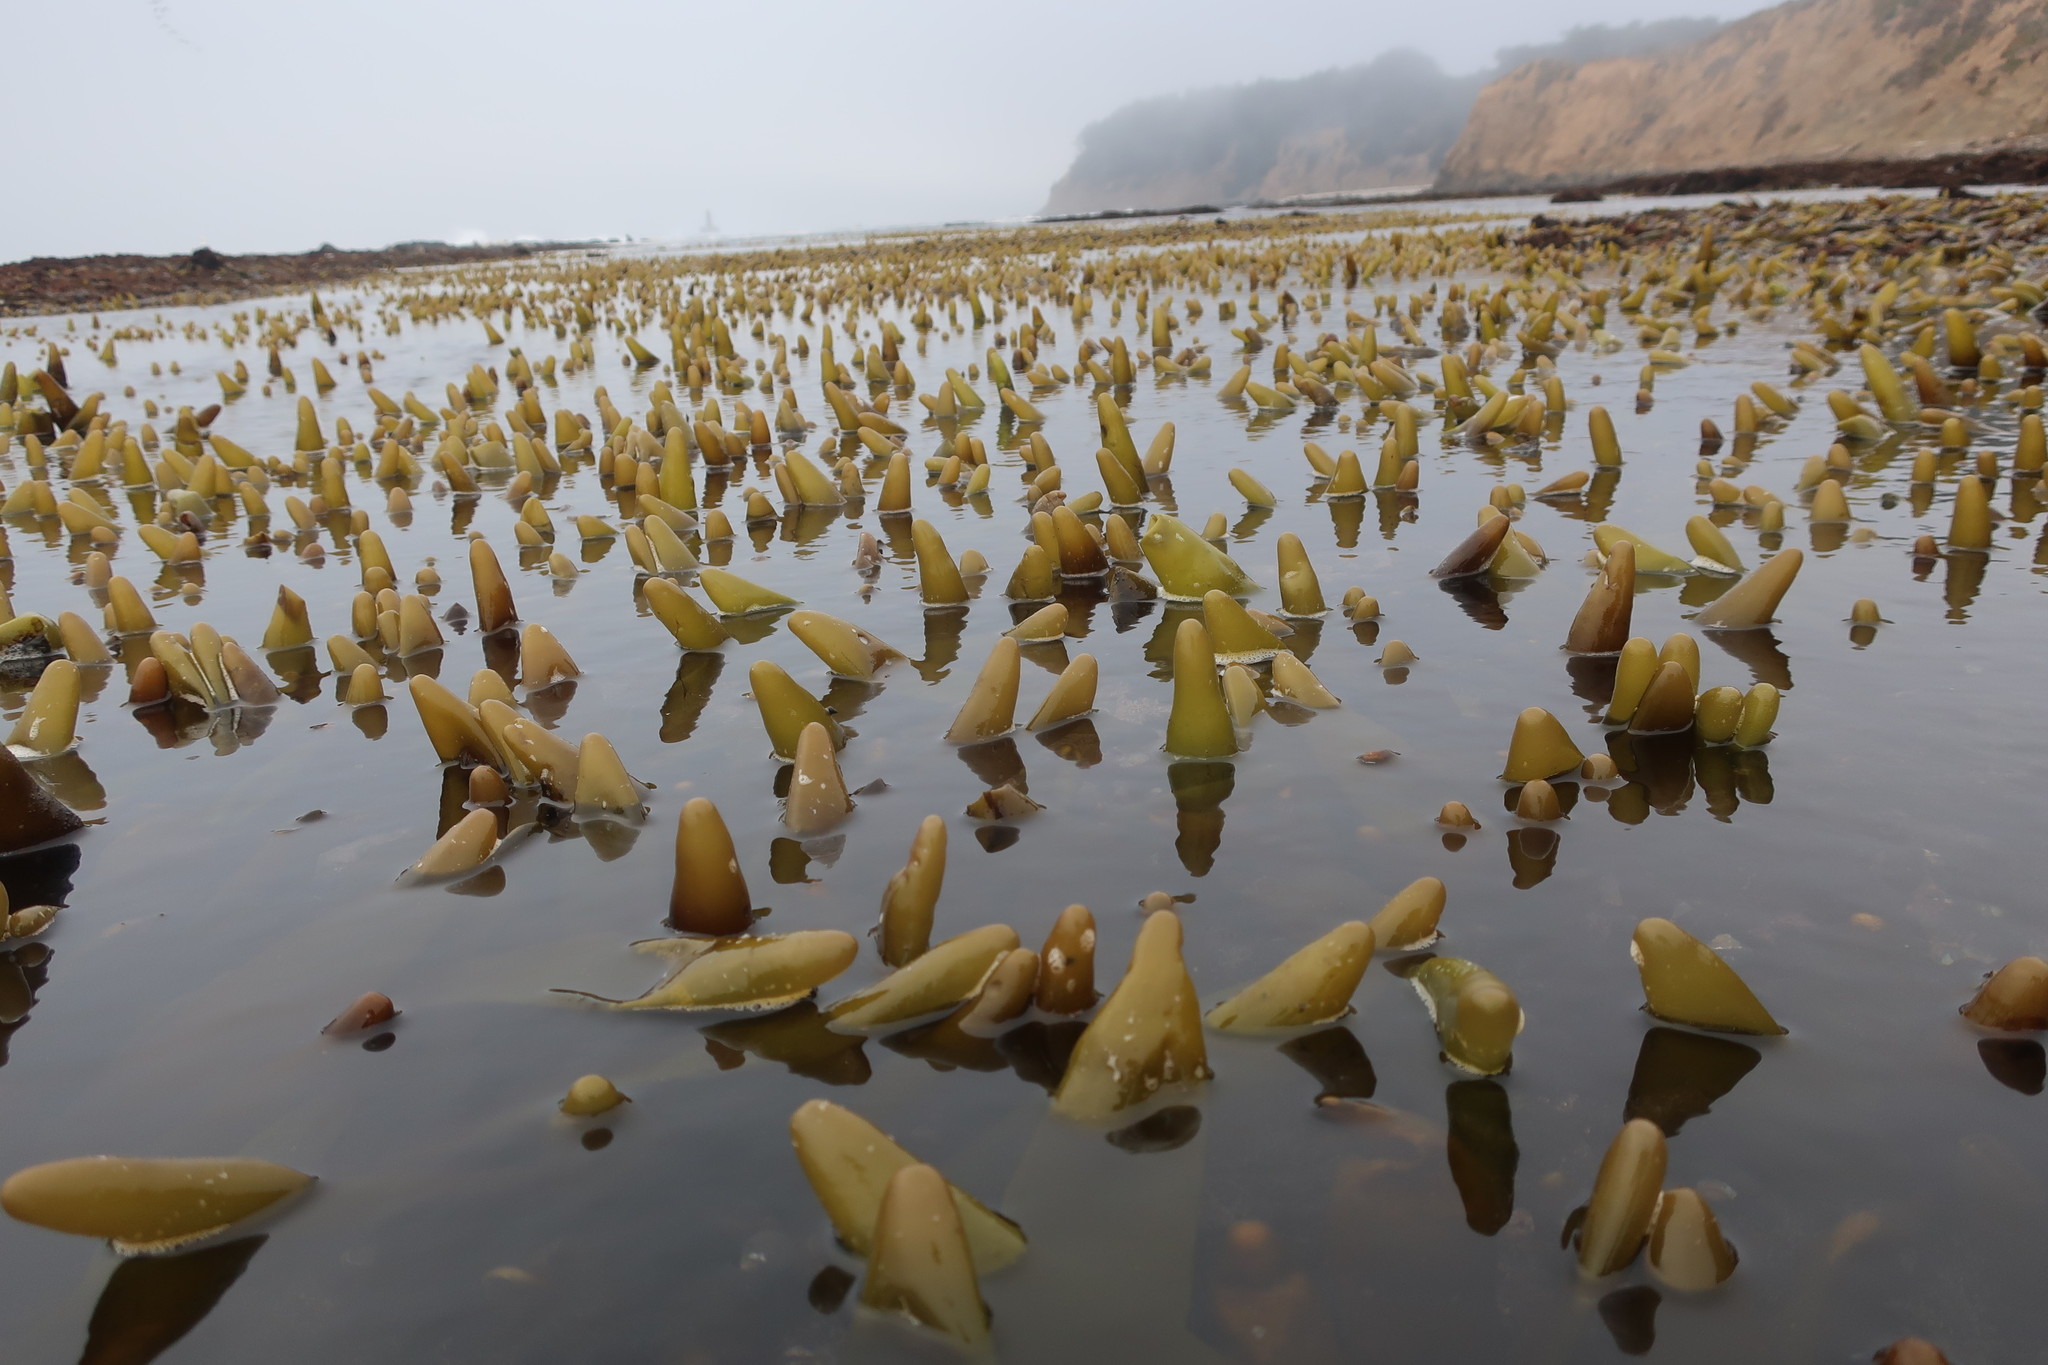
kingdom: Plantae
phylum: Rhodophyta
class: Florideophyceae
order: Palmariales
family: Palmariaceae
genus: Halosaccion
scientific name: Halosaccion glandiforme
